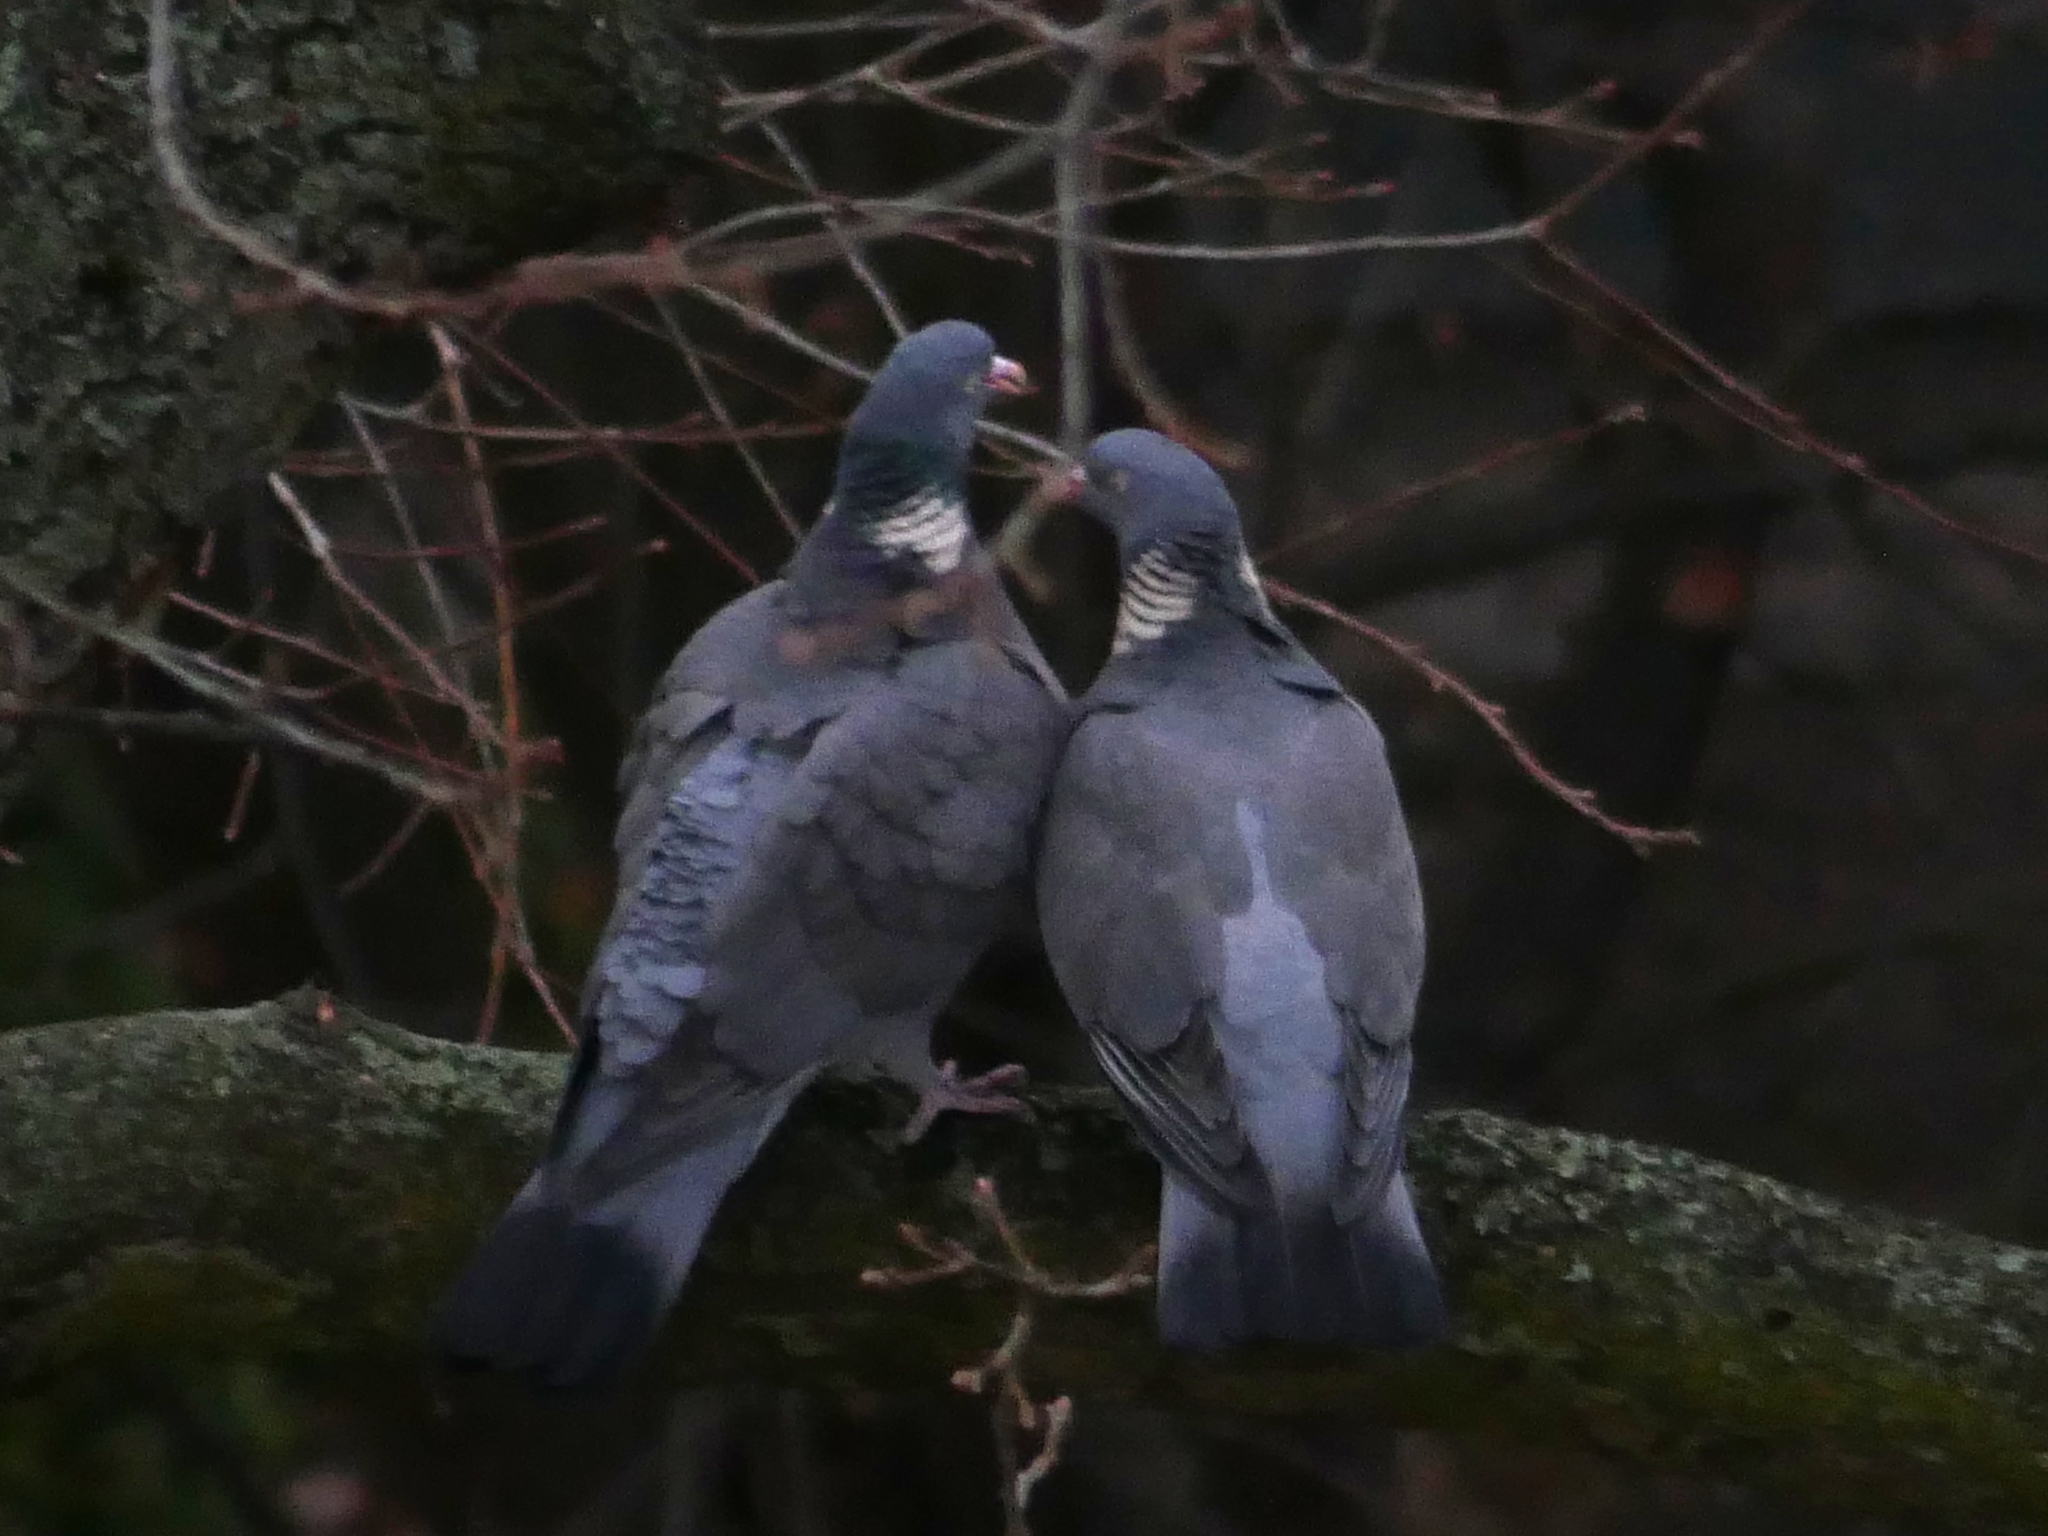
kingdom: Animalia
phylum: Chordata
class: Aves
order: Columbiformes
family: Columbidae
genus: Columba
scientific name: Columba palumbus
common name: Common wood pigeon
